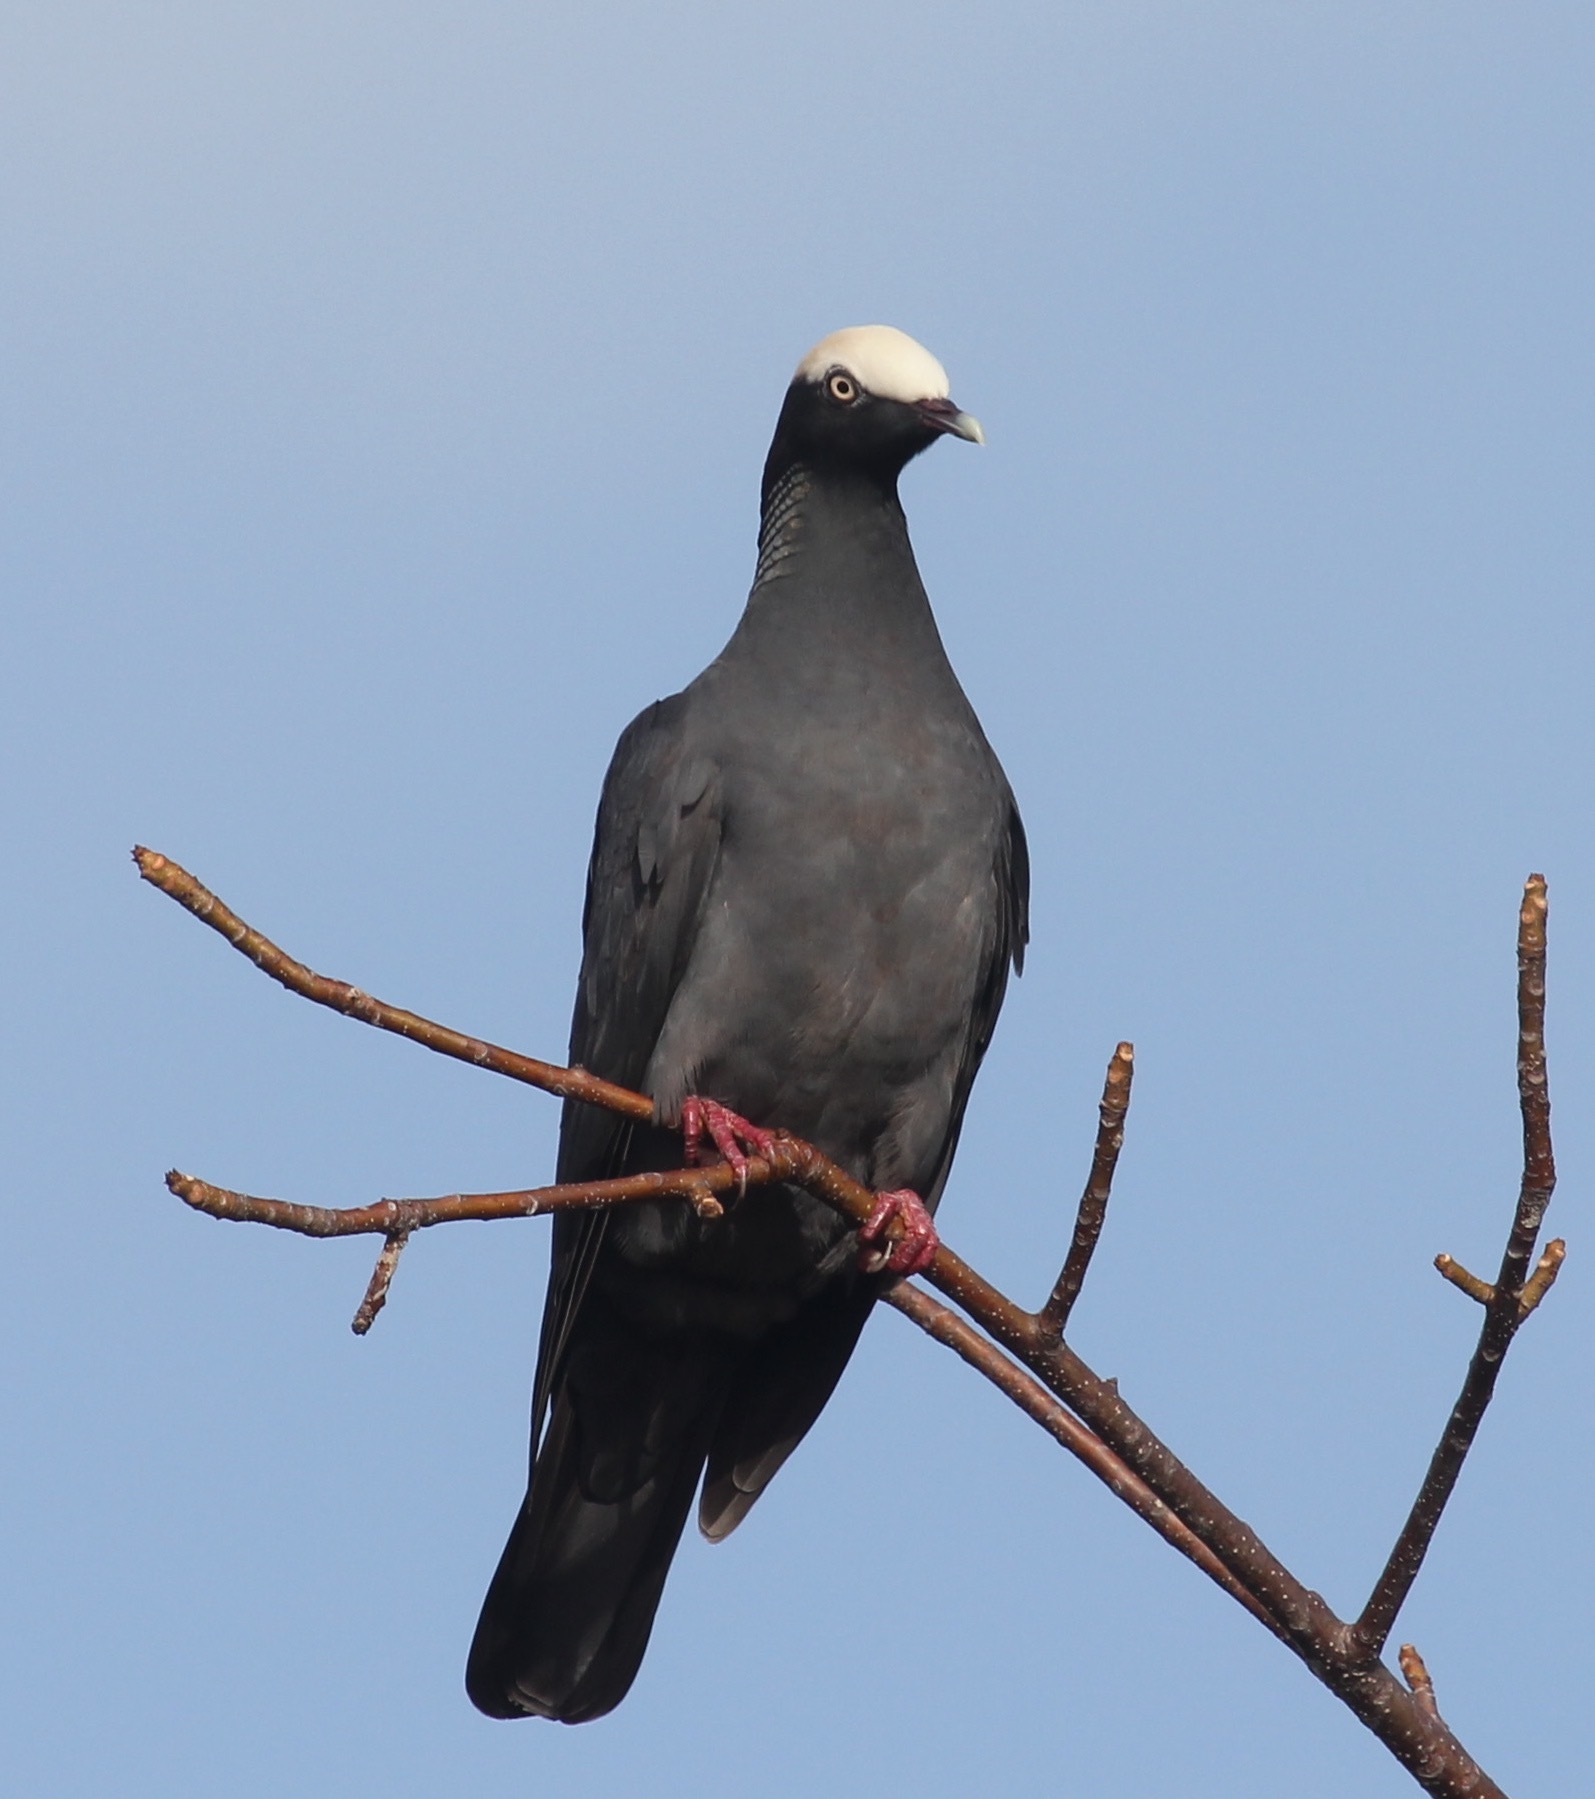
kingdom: Animalia
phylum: Chordata
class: Aves
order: Columbiformes
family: Columbidae
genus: Patagioenas
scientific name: Patagioenas leucocephala
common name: White-crowned pigeon
